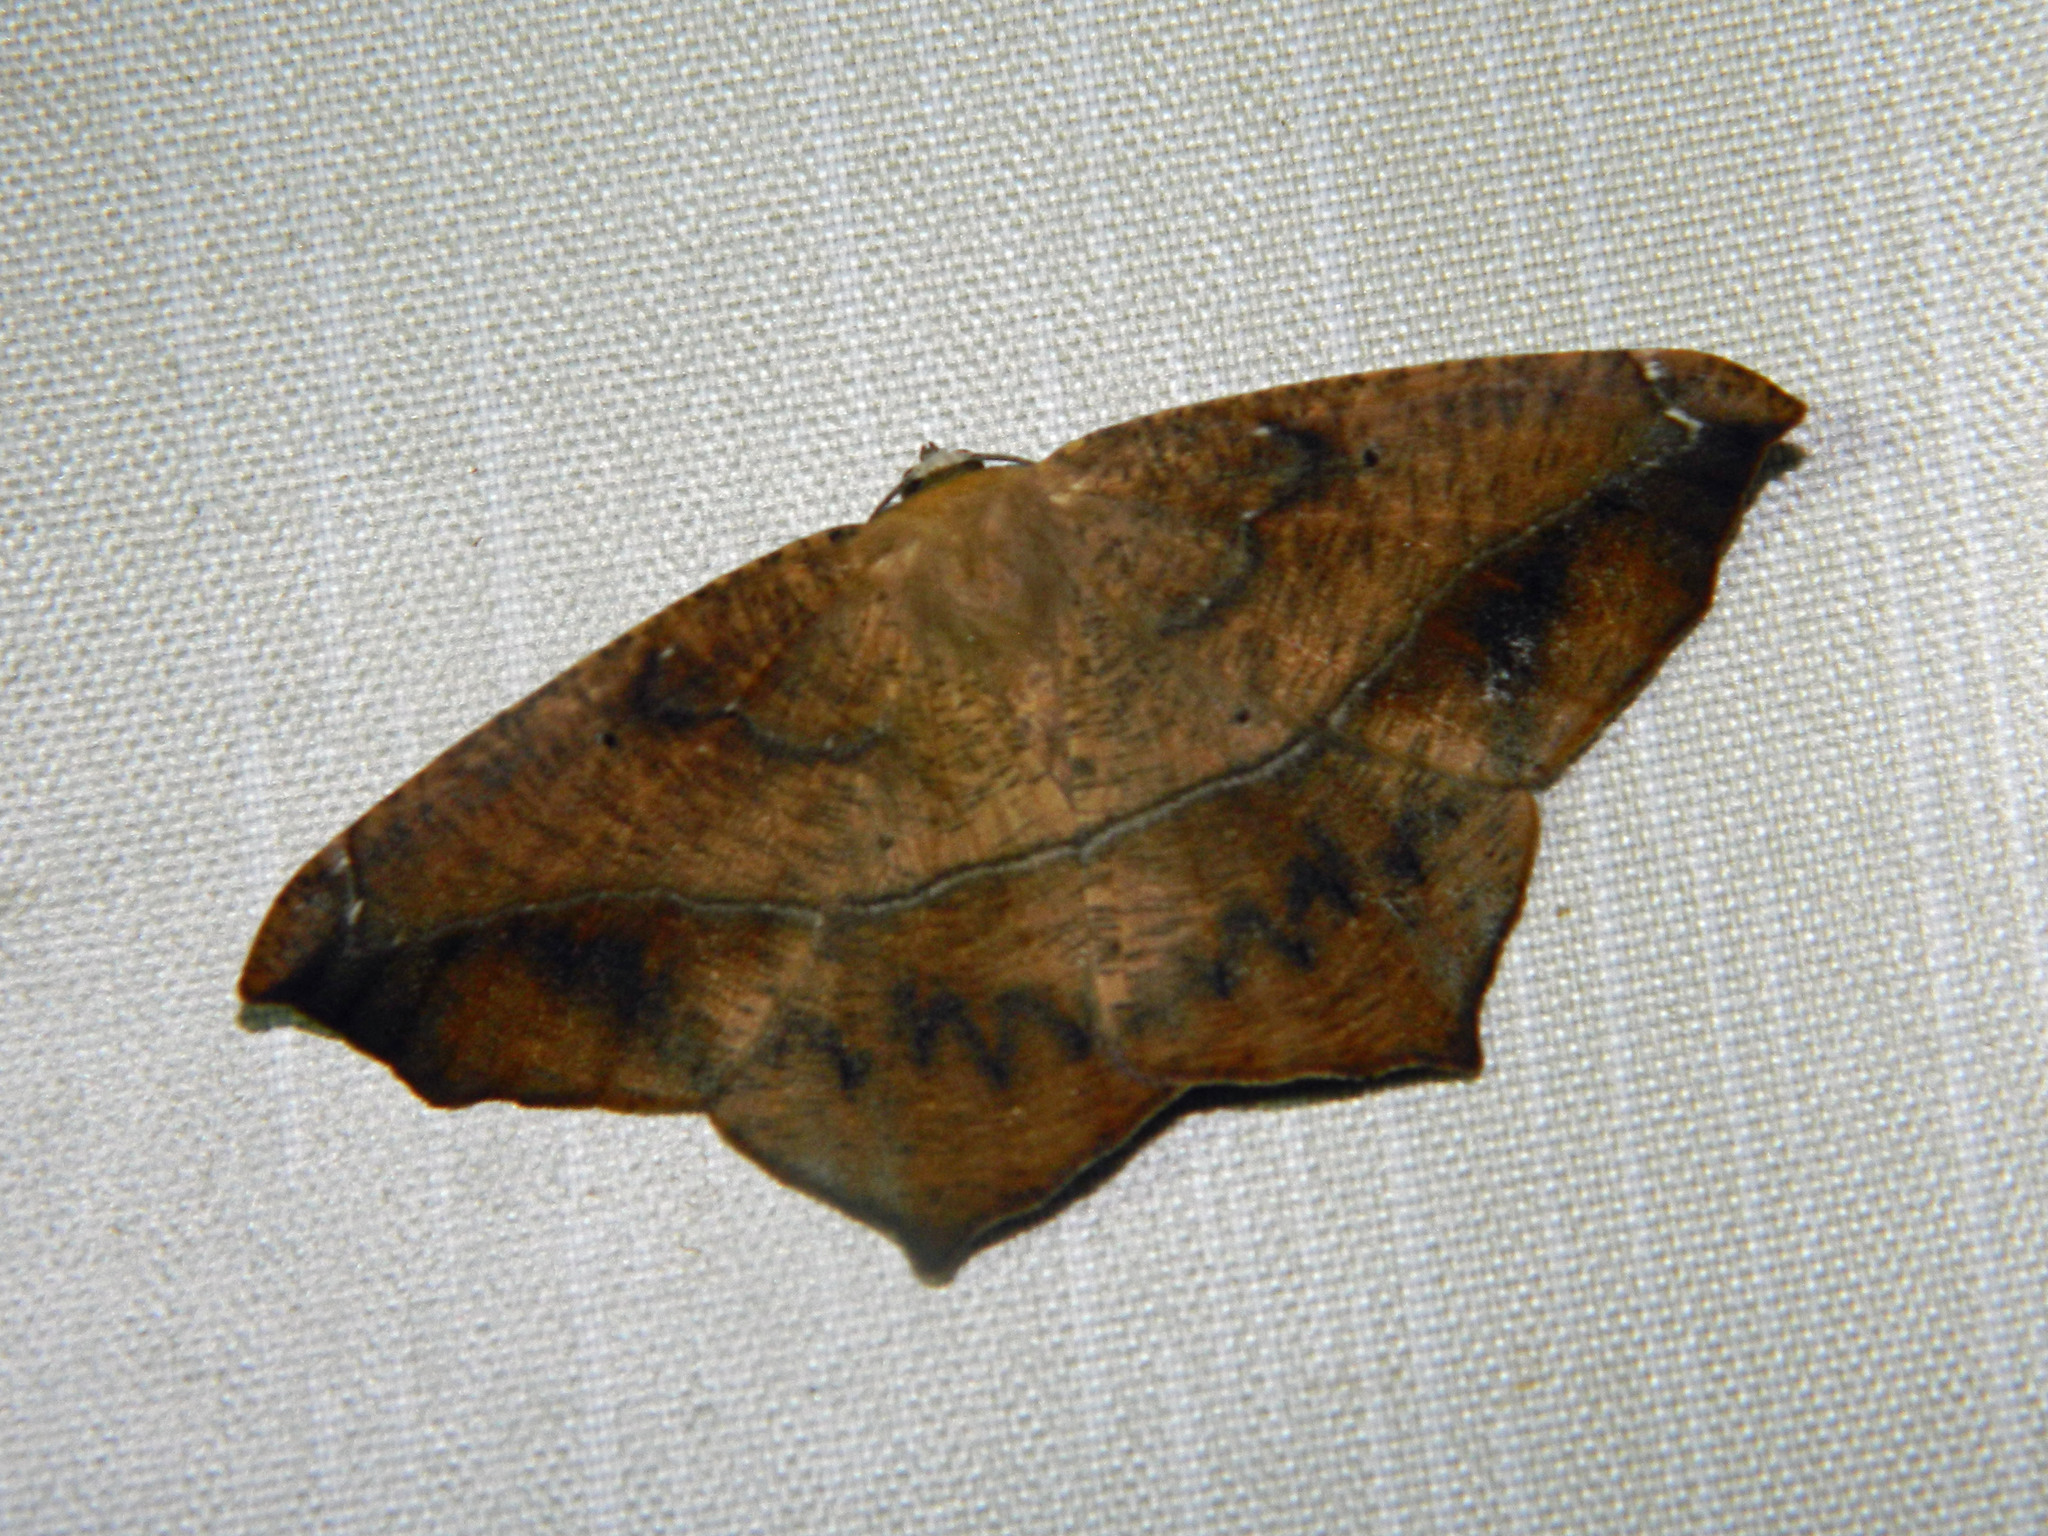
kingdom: Animalia
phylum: Arthropoda
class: Insecta
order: Lepidoptera
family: Geometridae
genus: Prochoerodes
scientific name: Prochoerodes lineola
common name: Large maple spanworm
